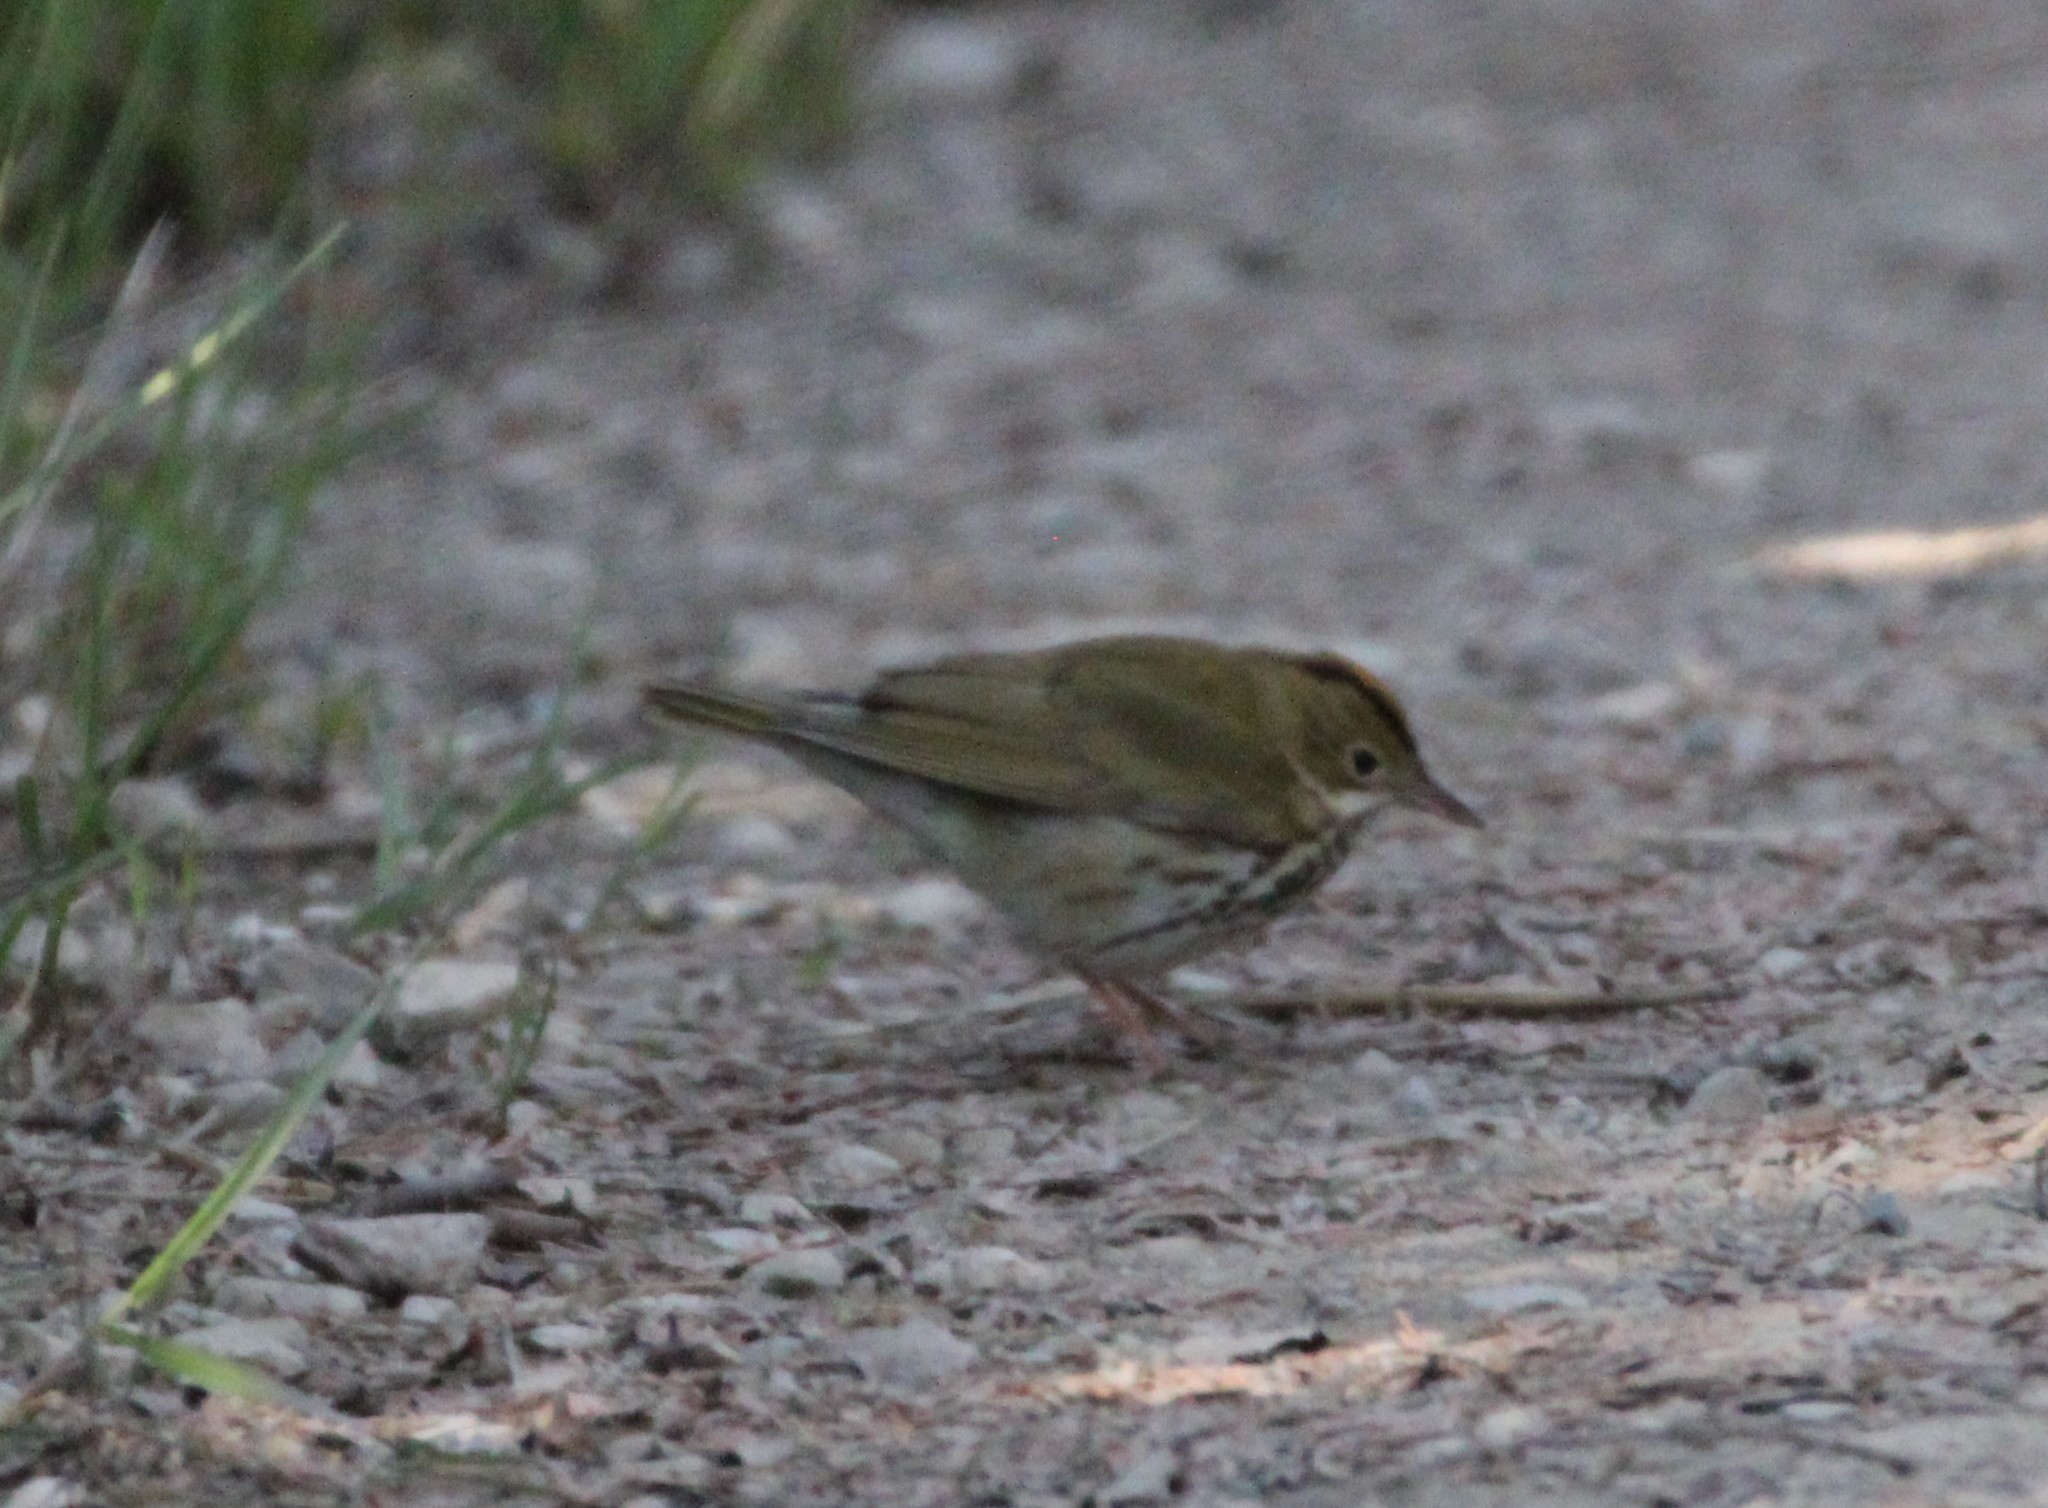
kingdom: Animalia
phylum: Chordata
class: Aves
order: Passeriformes
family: Parulidae
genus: Seiurus
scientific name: Seiurus aurocapilla
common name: Ovenbird
